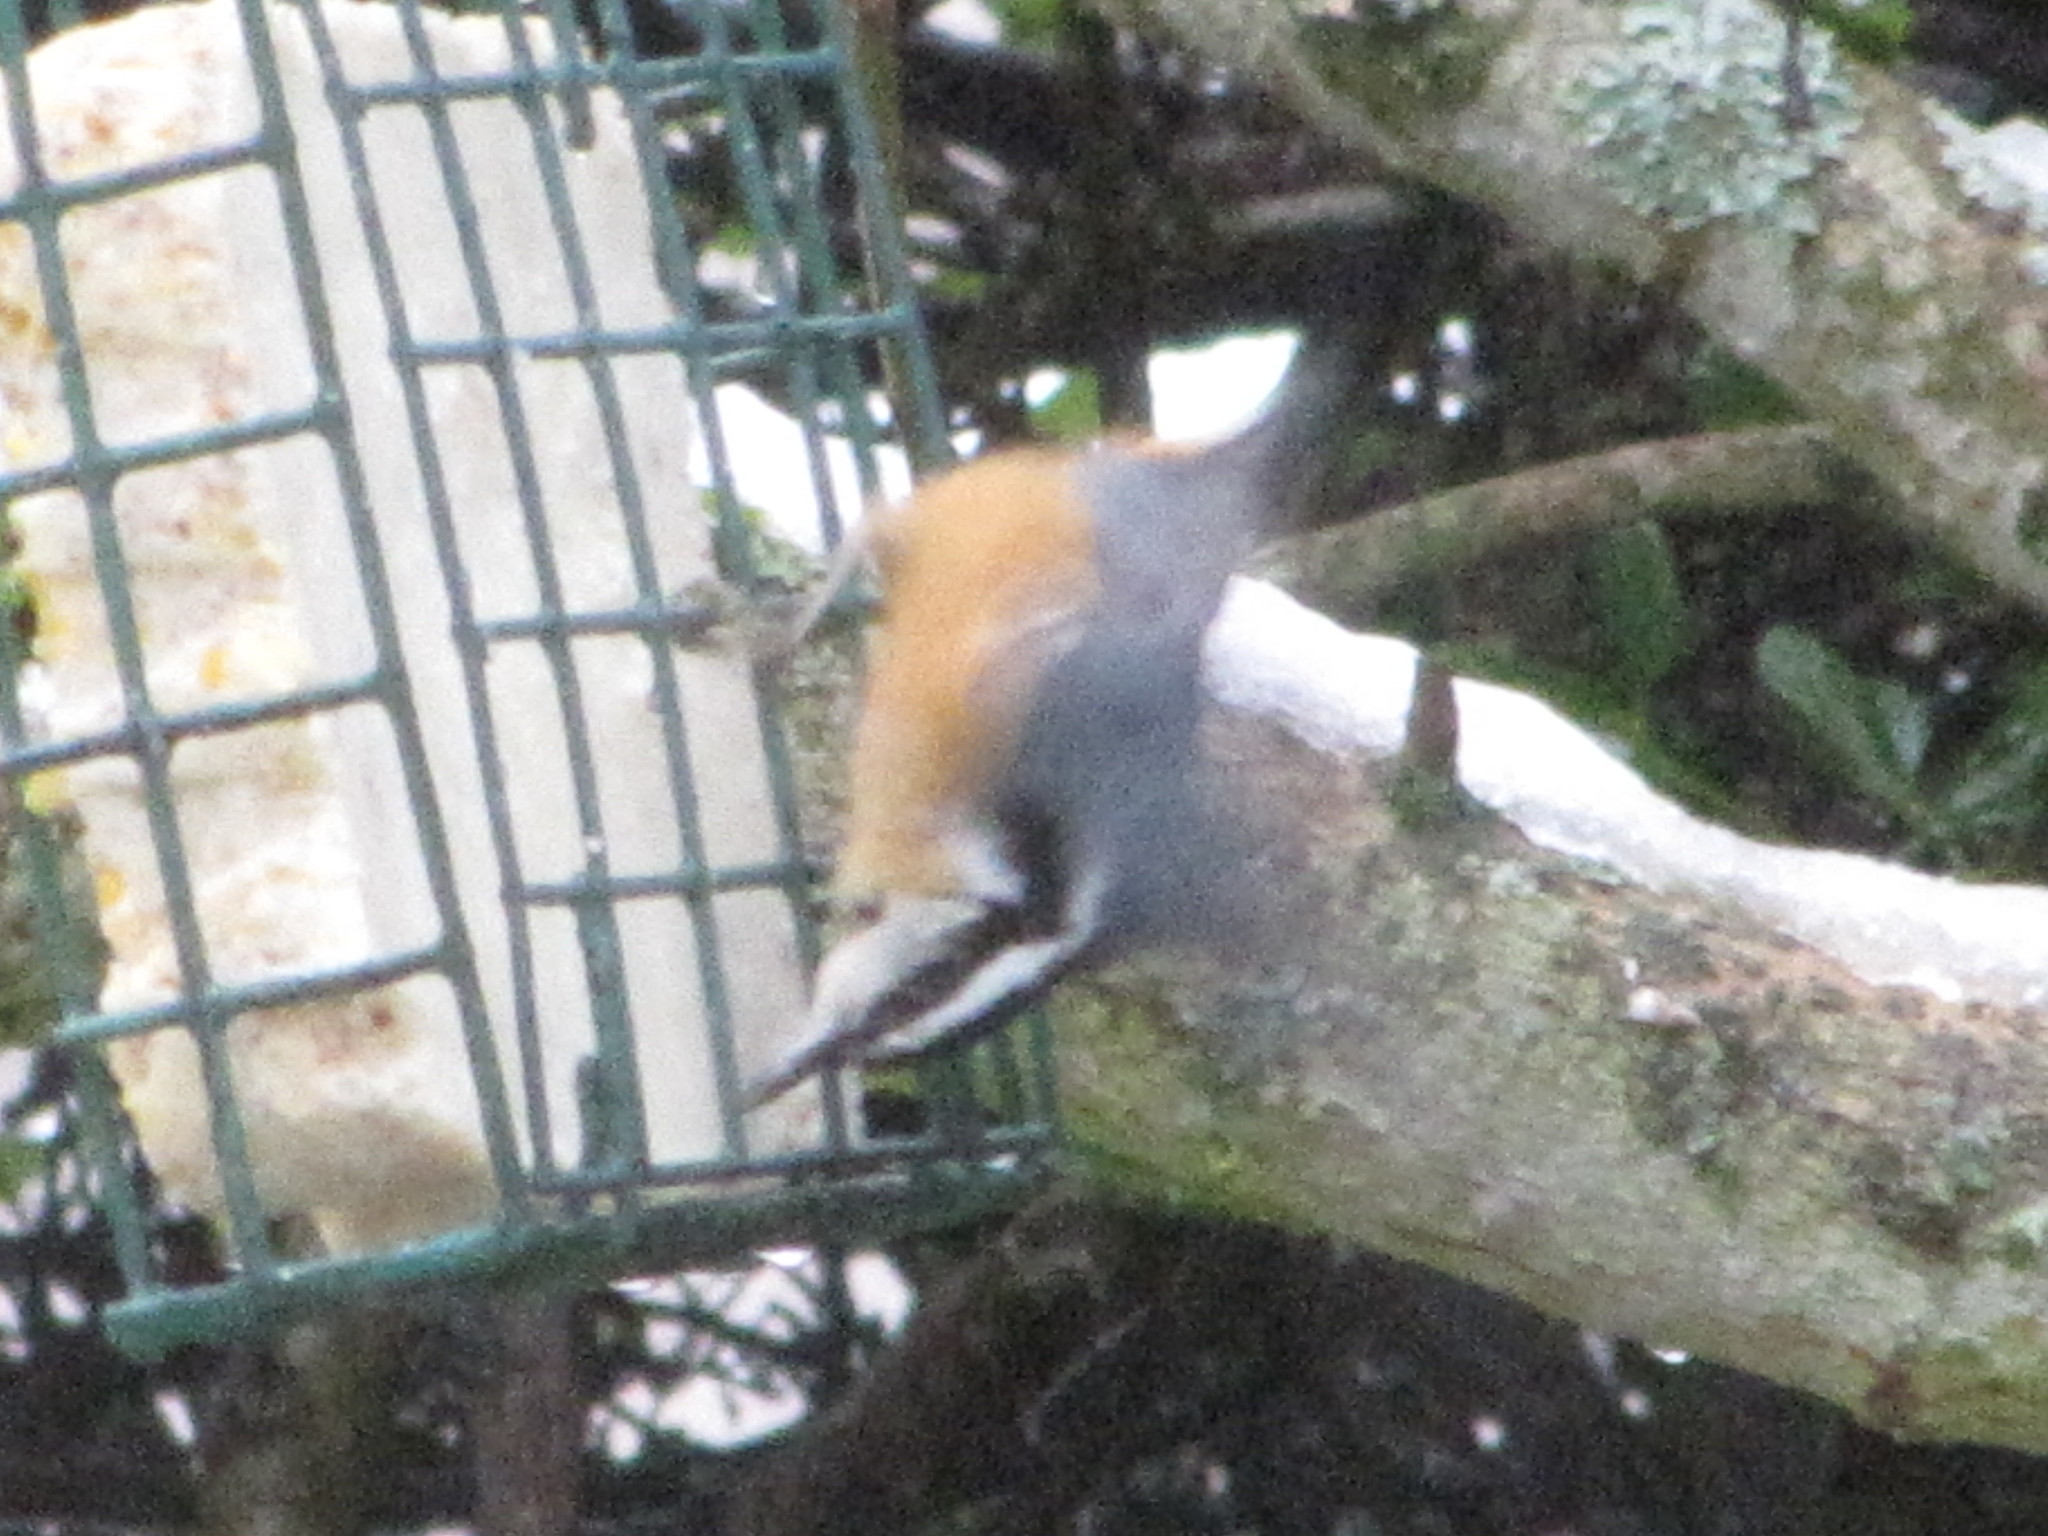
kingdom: Animalia
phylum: Chordata
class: Aves
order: Passeriformes
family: Sittidae
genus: Sitta
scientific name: Sitta canadensis
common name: Red-breasted nuthatch
